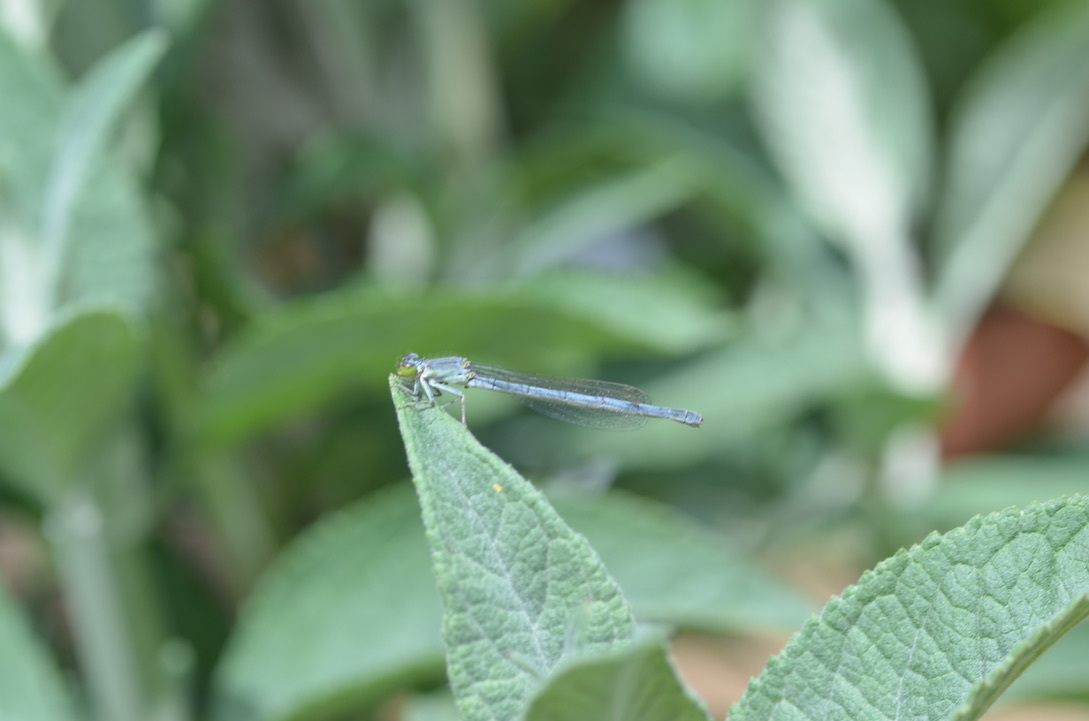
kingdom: Animalia
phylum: Arthropoda
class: Insecta
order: Odonata
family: Coenagrionidae
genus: Ischnura
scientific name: Ischnura perparva
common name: Western forktail
